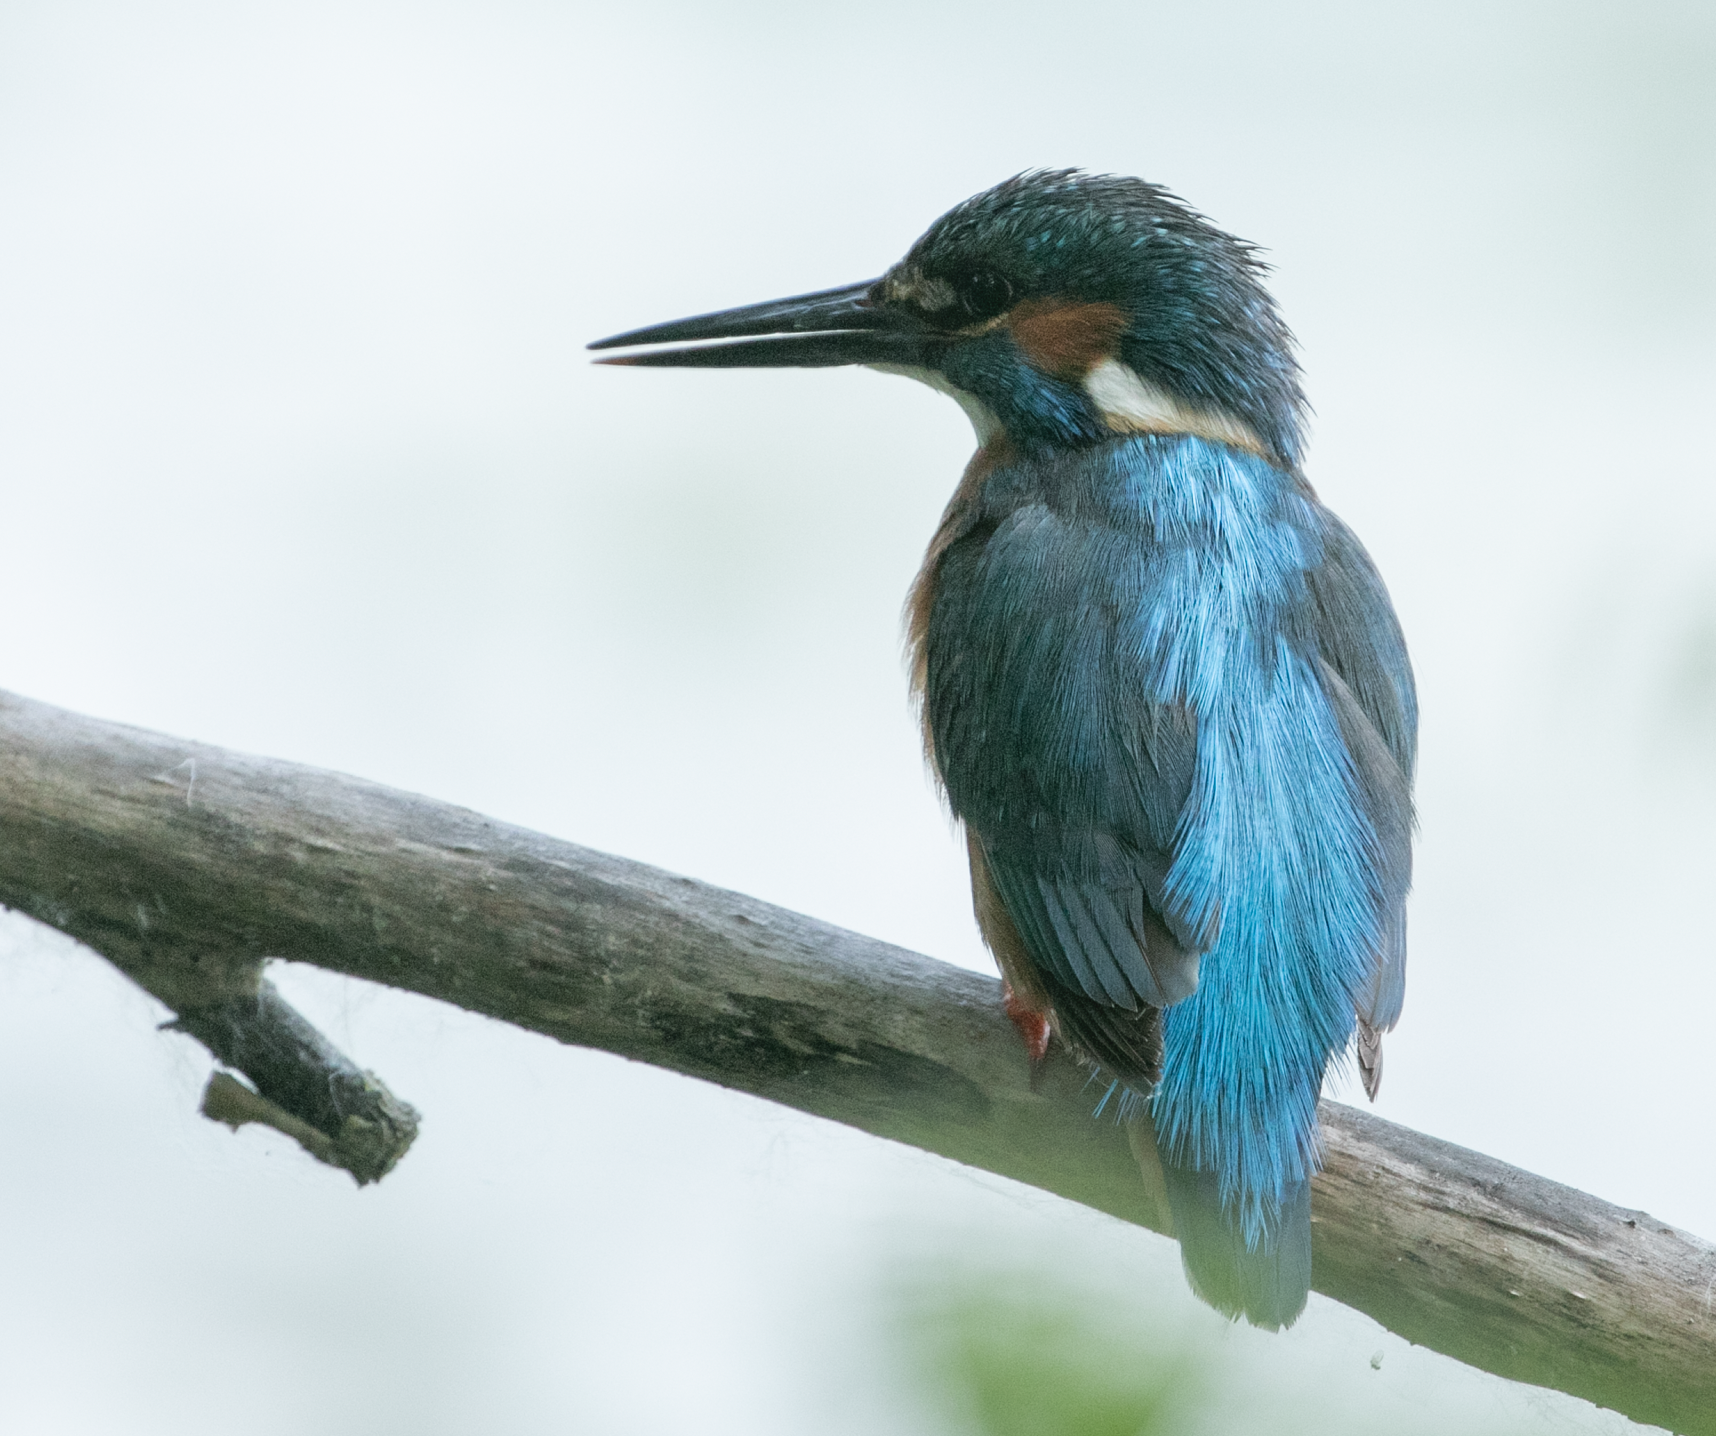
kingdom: Animalia
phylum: Chordata
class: Aves
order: Coraciiformes
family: Alcedinidae
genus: Alcedo
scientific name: Alcedo atthis
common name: Common kingfisher
